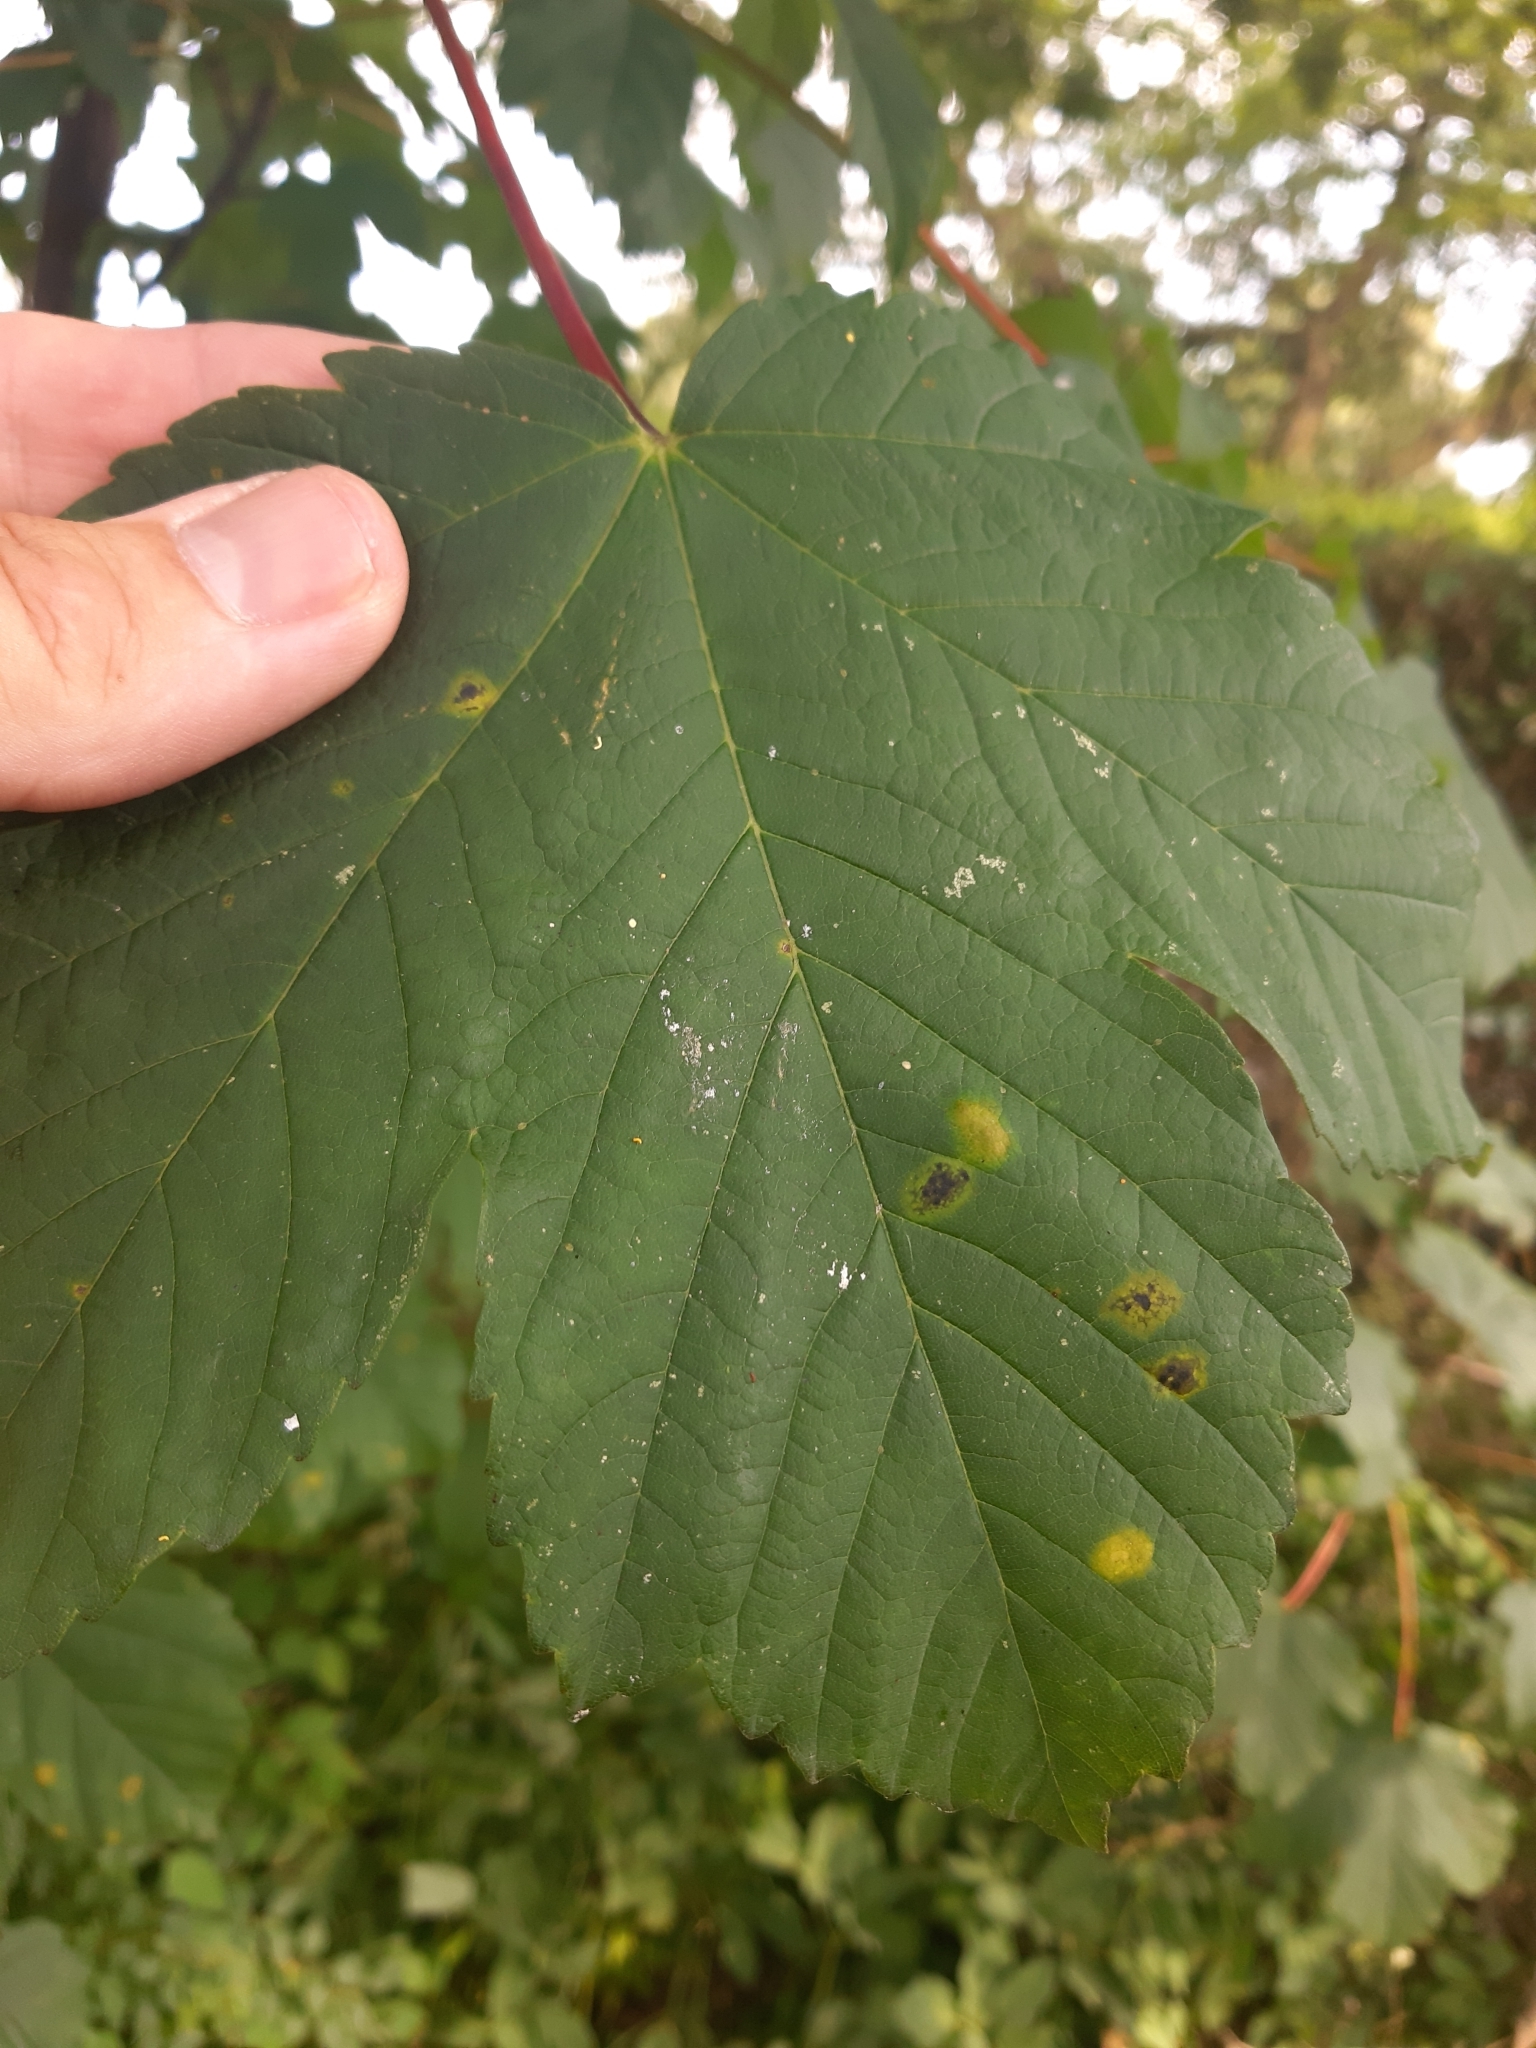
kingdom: Fungi
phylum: Ascomycota
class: Leotiomycetes
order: Rhytismatales
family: Rhytismataceae
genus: Rhytisma
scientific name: Rhytisma acerinum
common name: European tar spot
